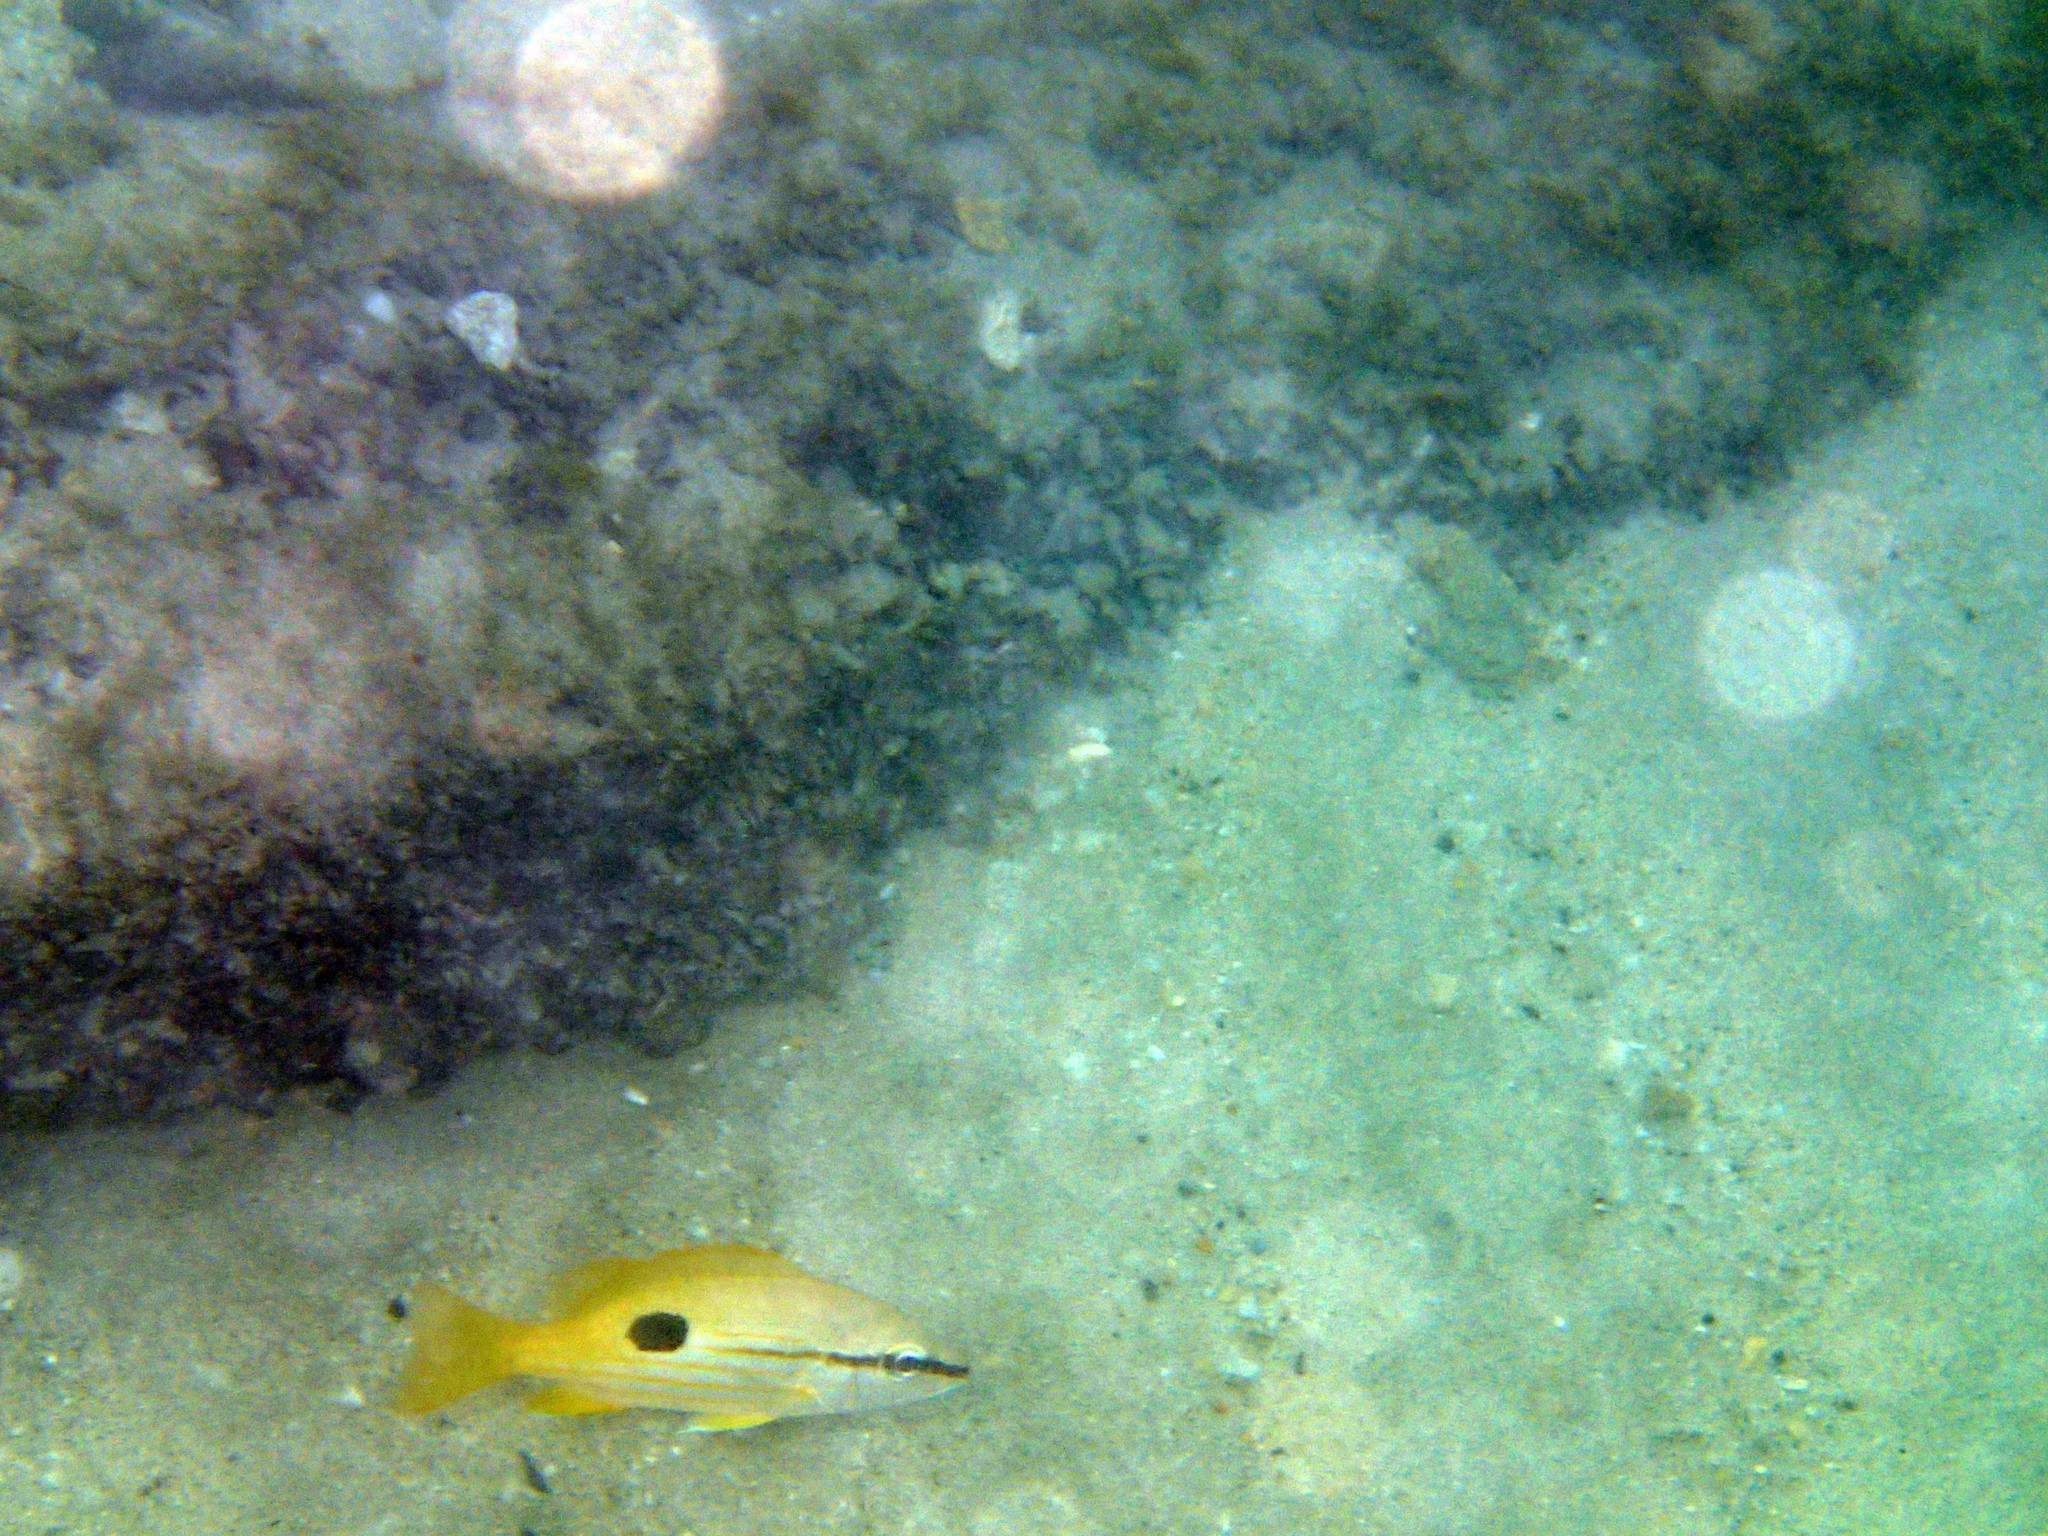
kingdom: Animalia
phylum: Chordata
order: Perciformes
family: Lutjanidae
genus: Lutjanus
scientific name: Lutjanus fulviflamma
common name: Blackspot snapper
